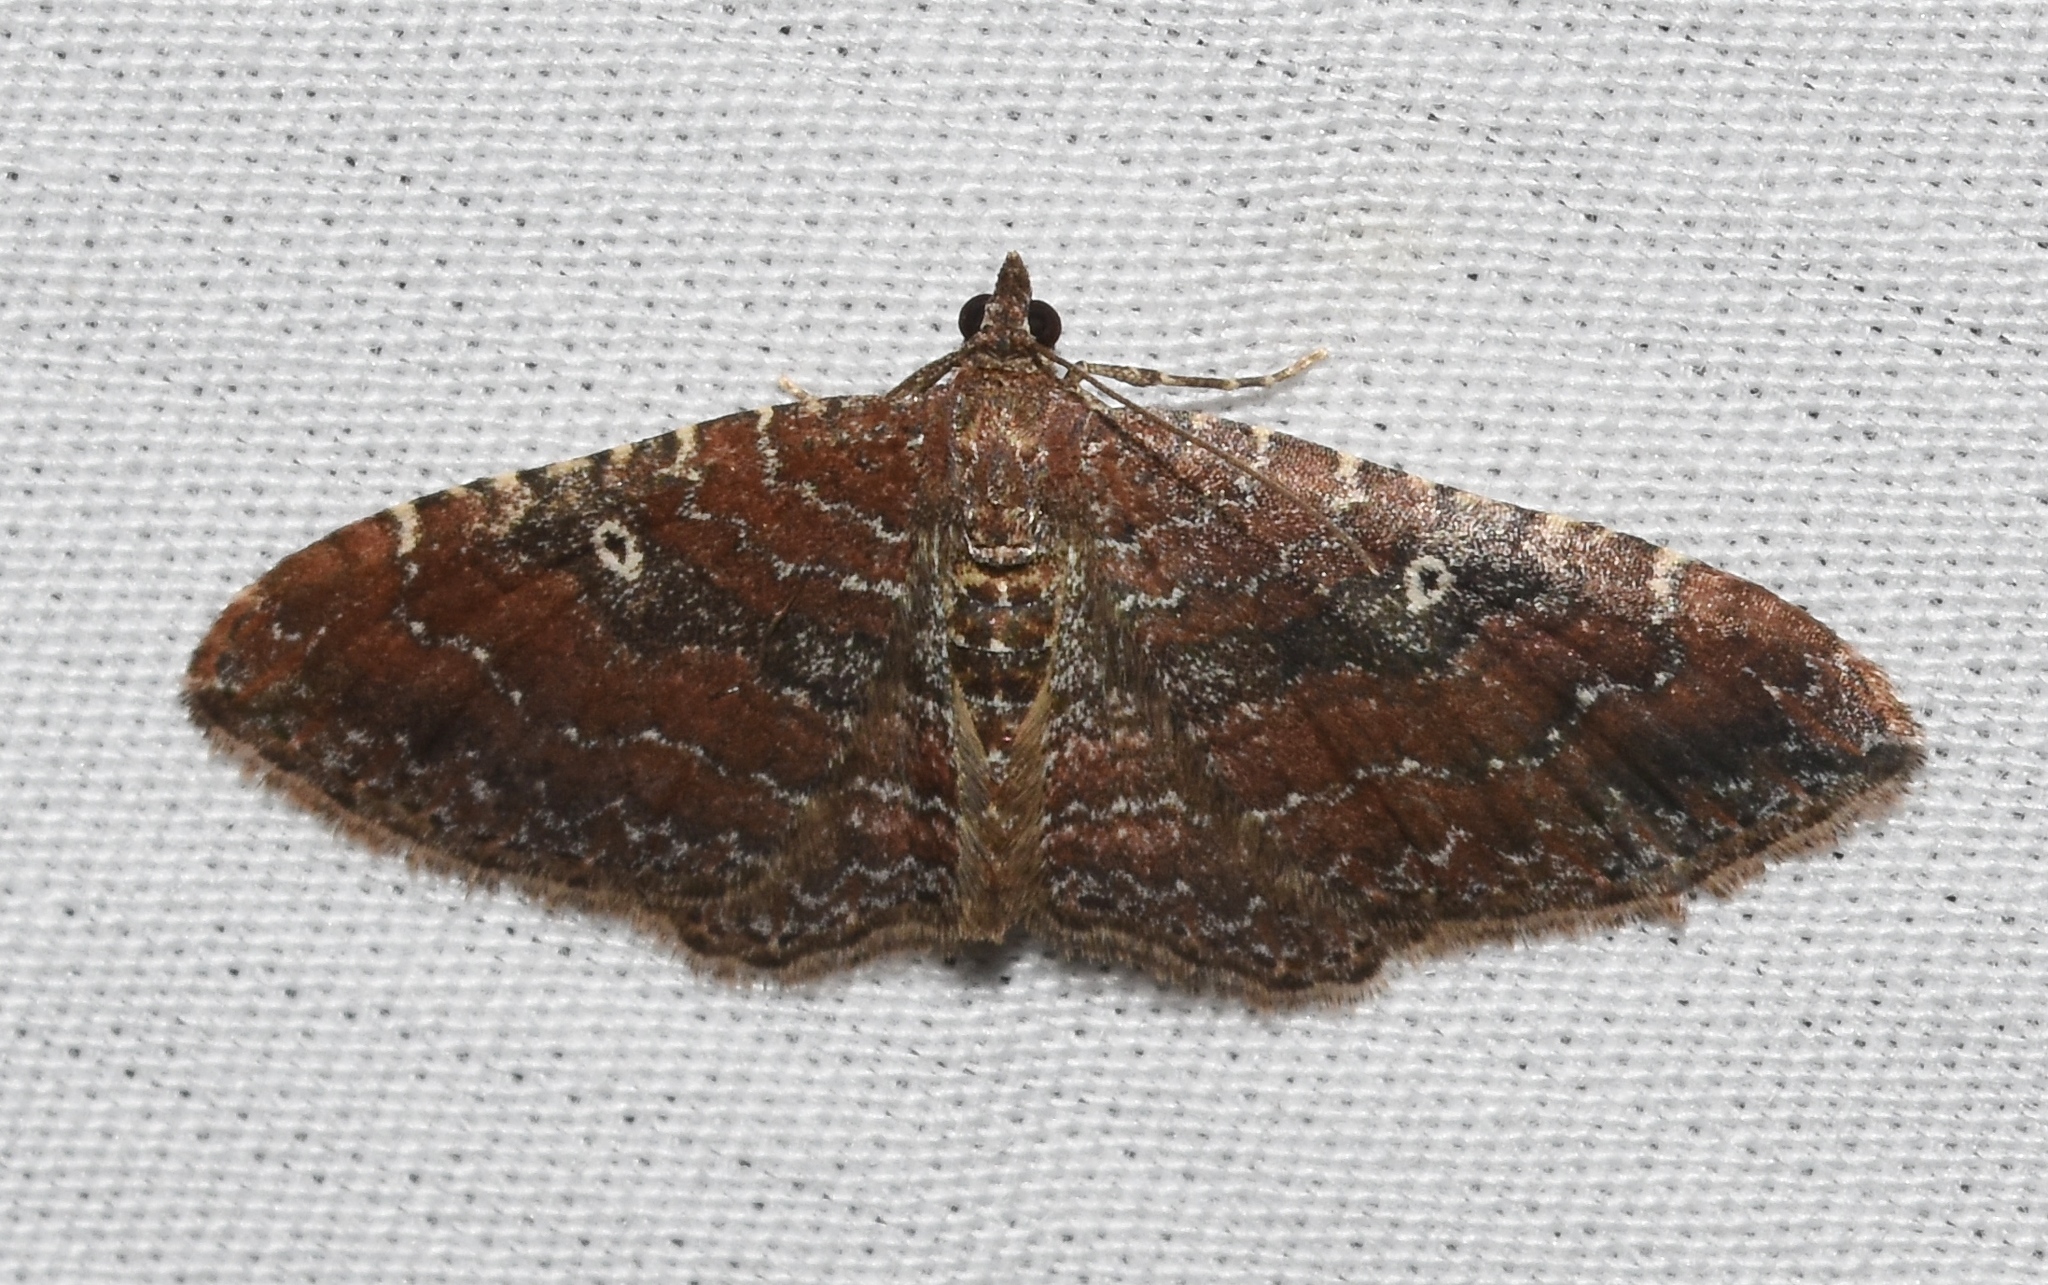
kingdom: Animalia
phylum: Arthropoda
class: Insecta
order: Lepidoptera
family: Geometridae
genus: Orthonama
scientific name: Orthonama obstipata
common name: The gem
